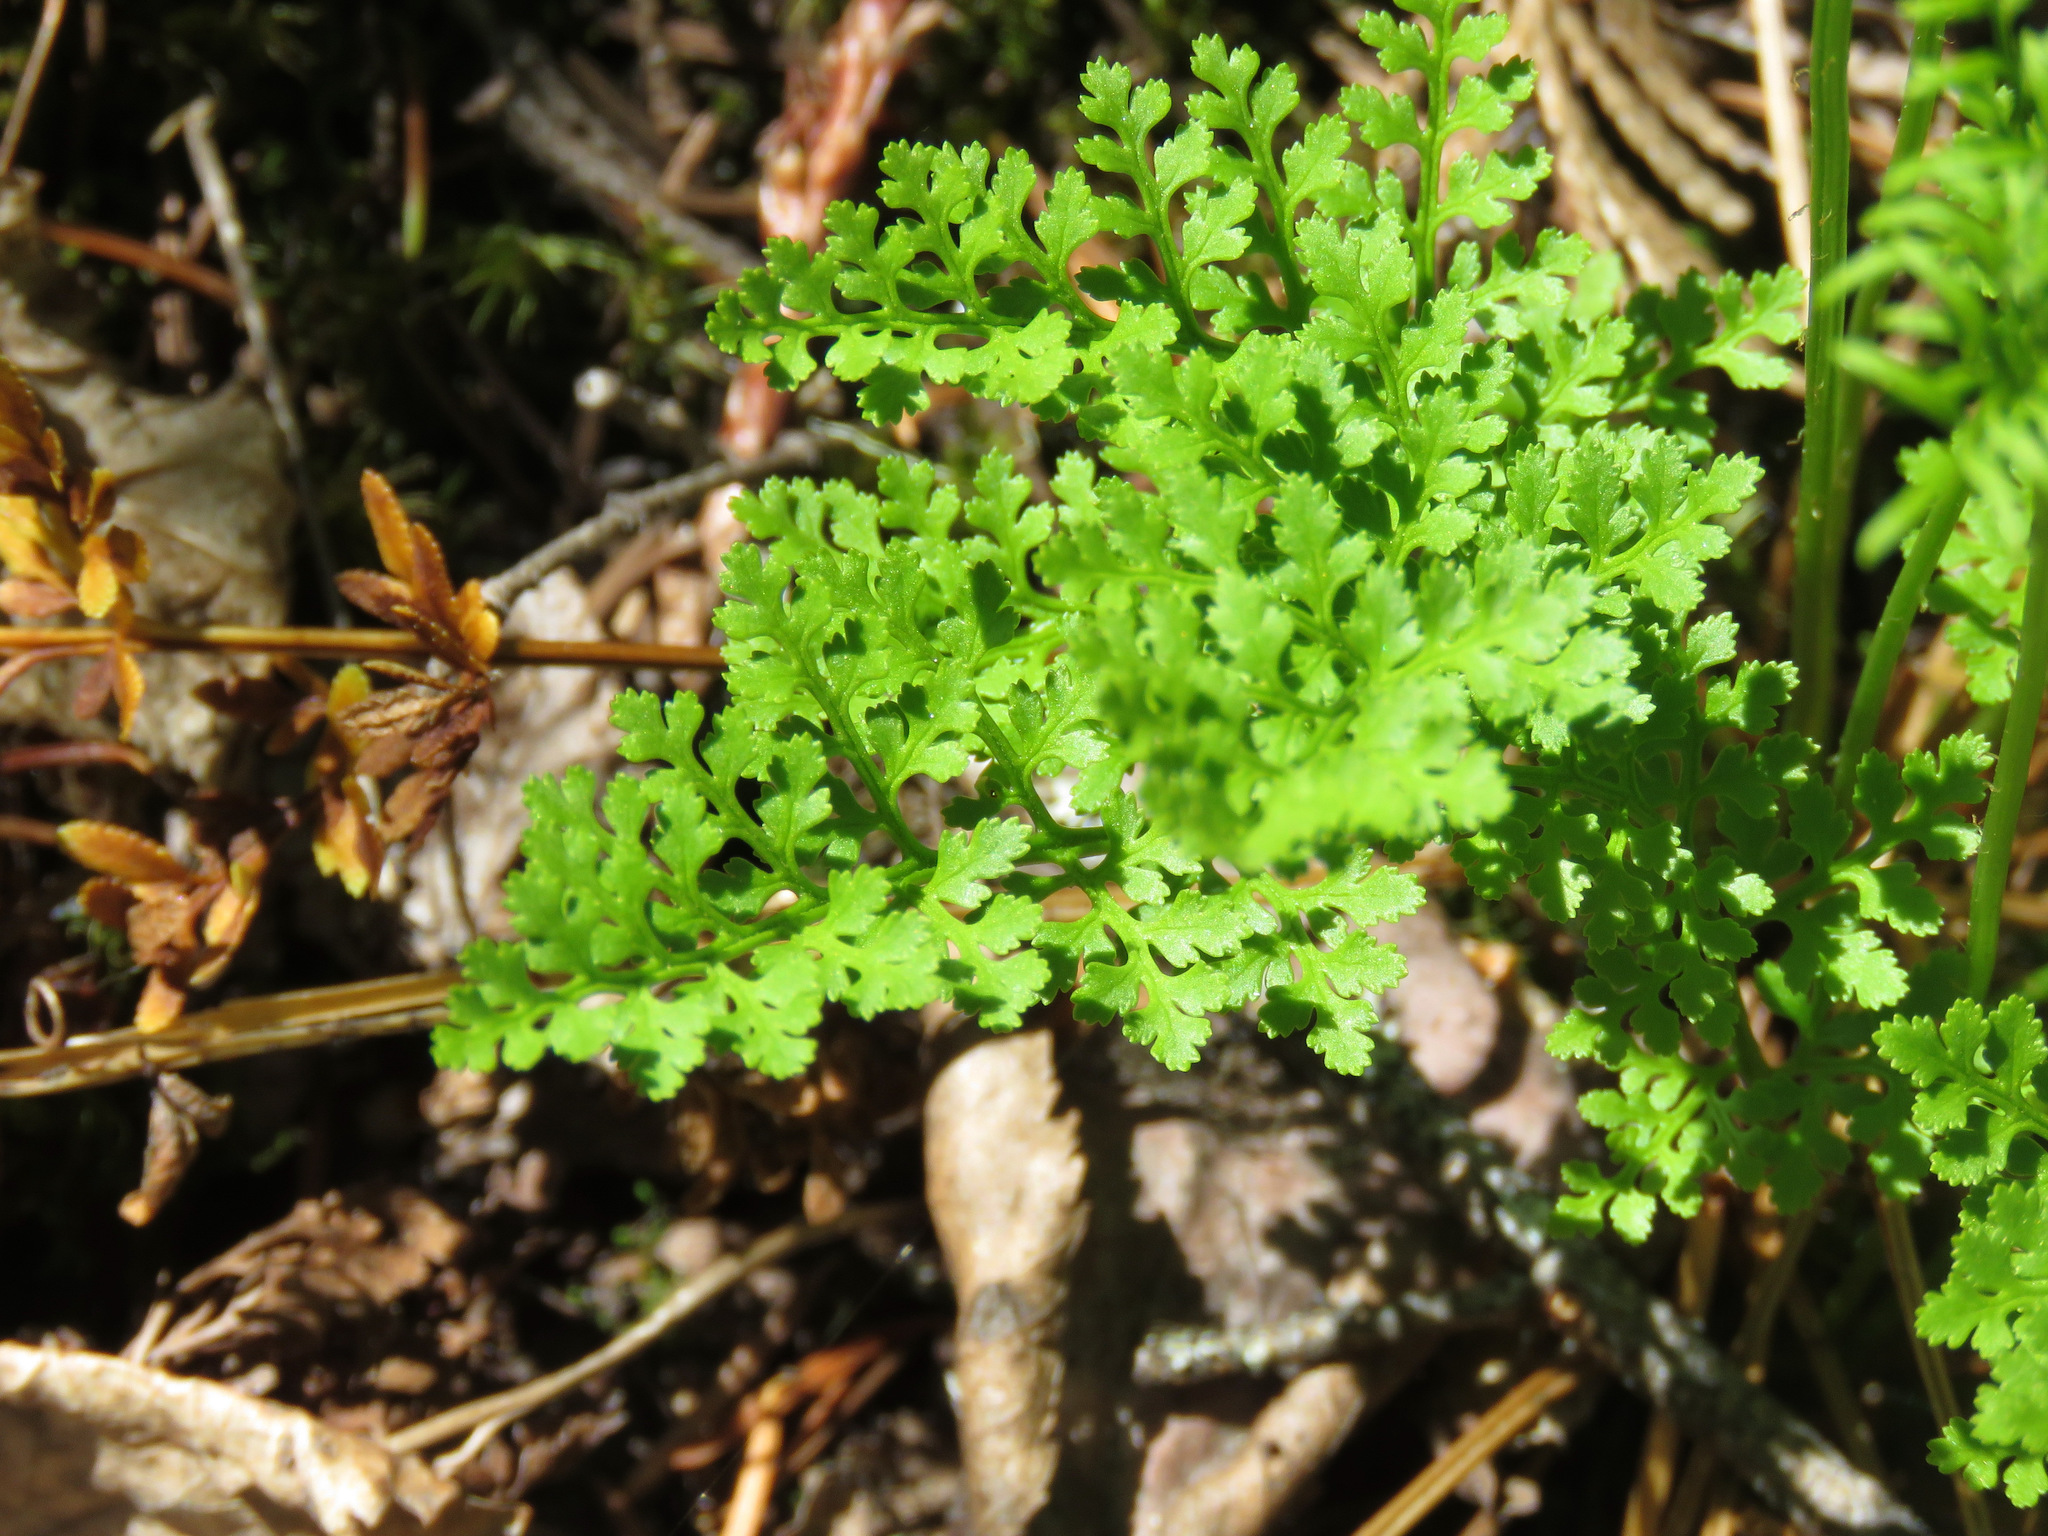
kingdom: Plantae
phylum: Tracheophyta
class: Polypodiopsida
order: Polypodiales
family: Pteridaceae
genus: Cryptogramma
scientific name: Cryptogramma acrostichoides
